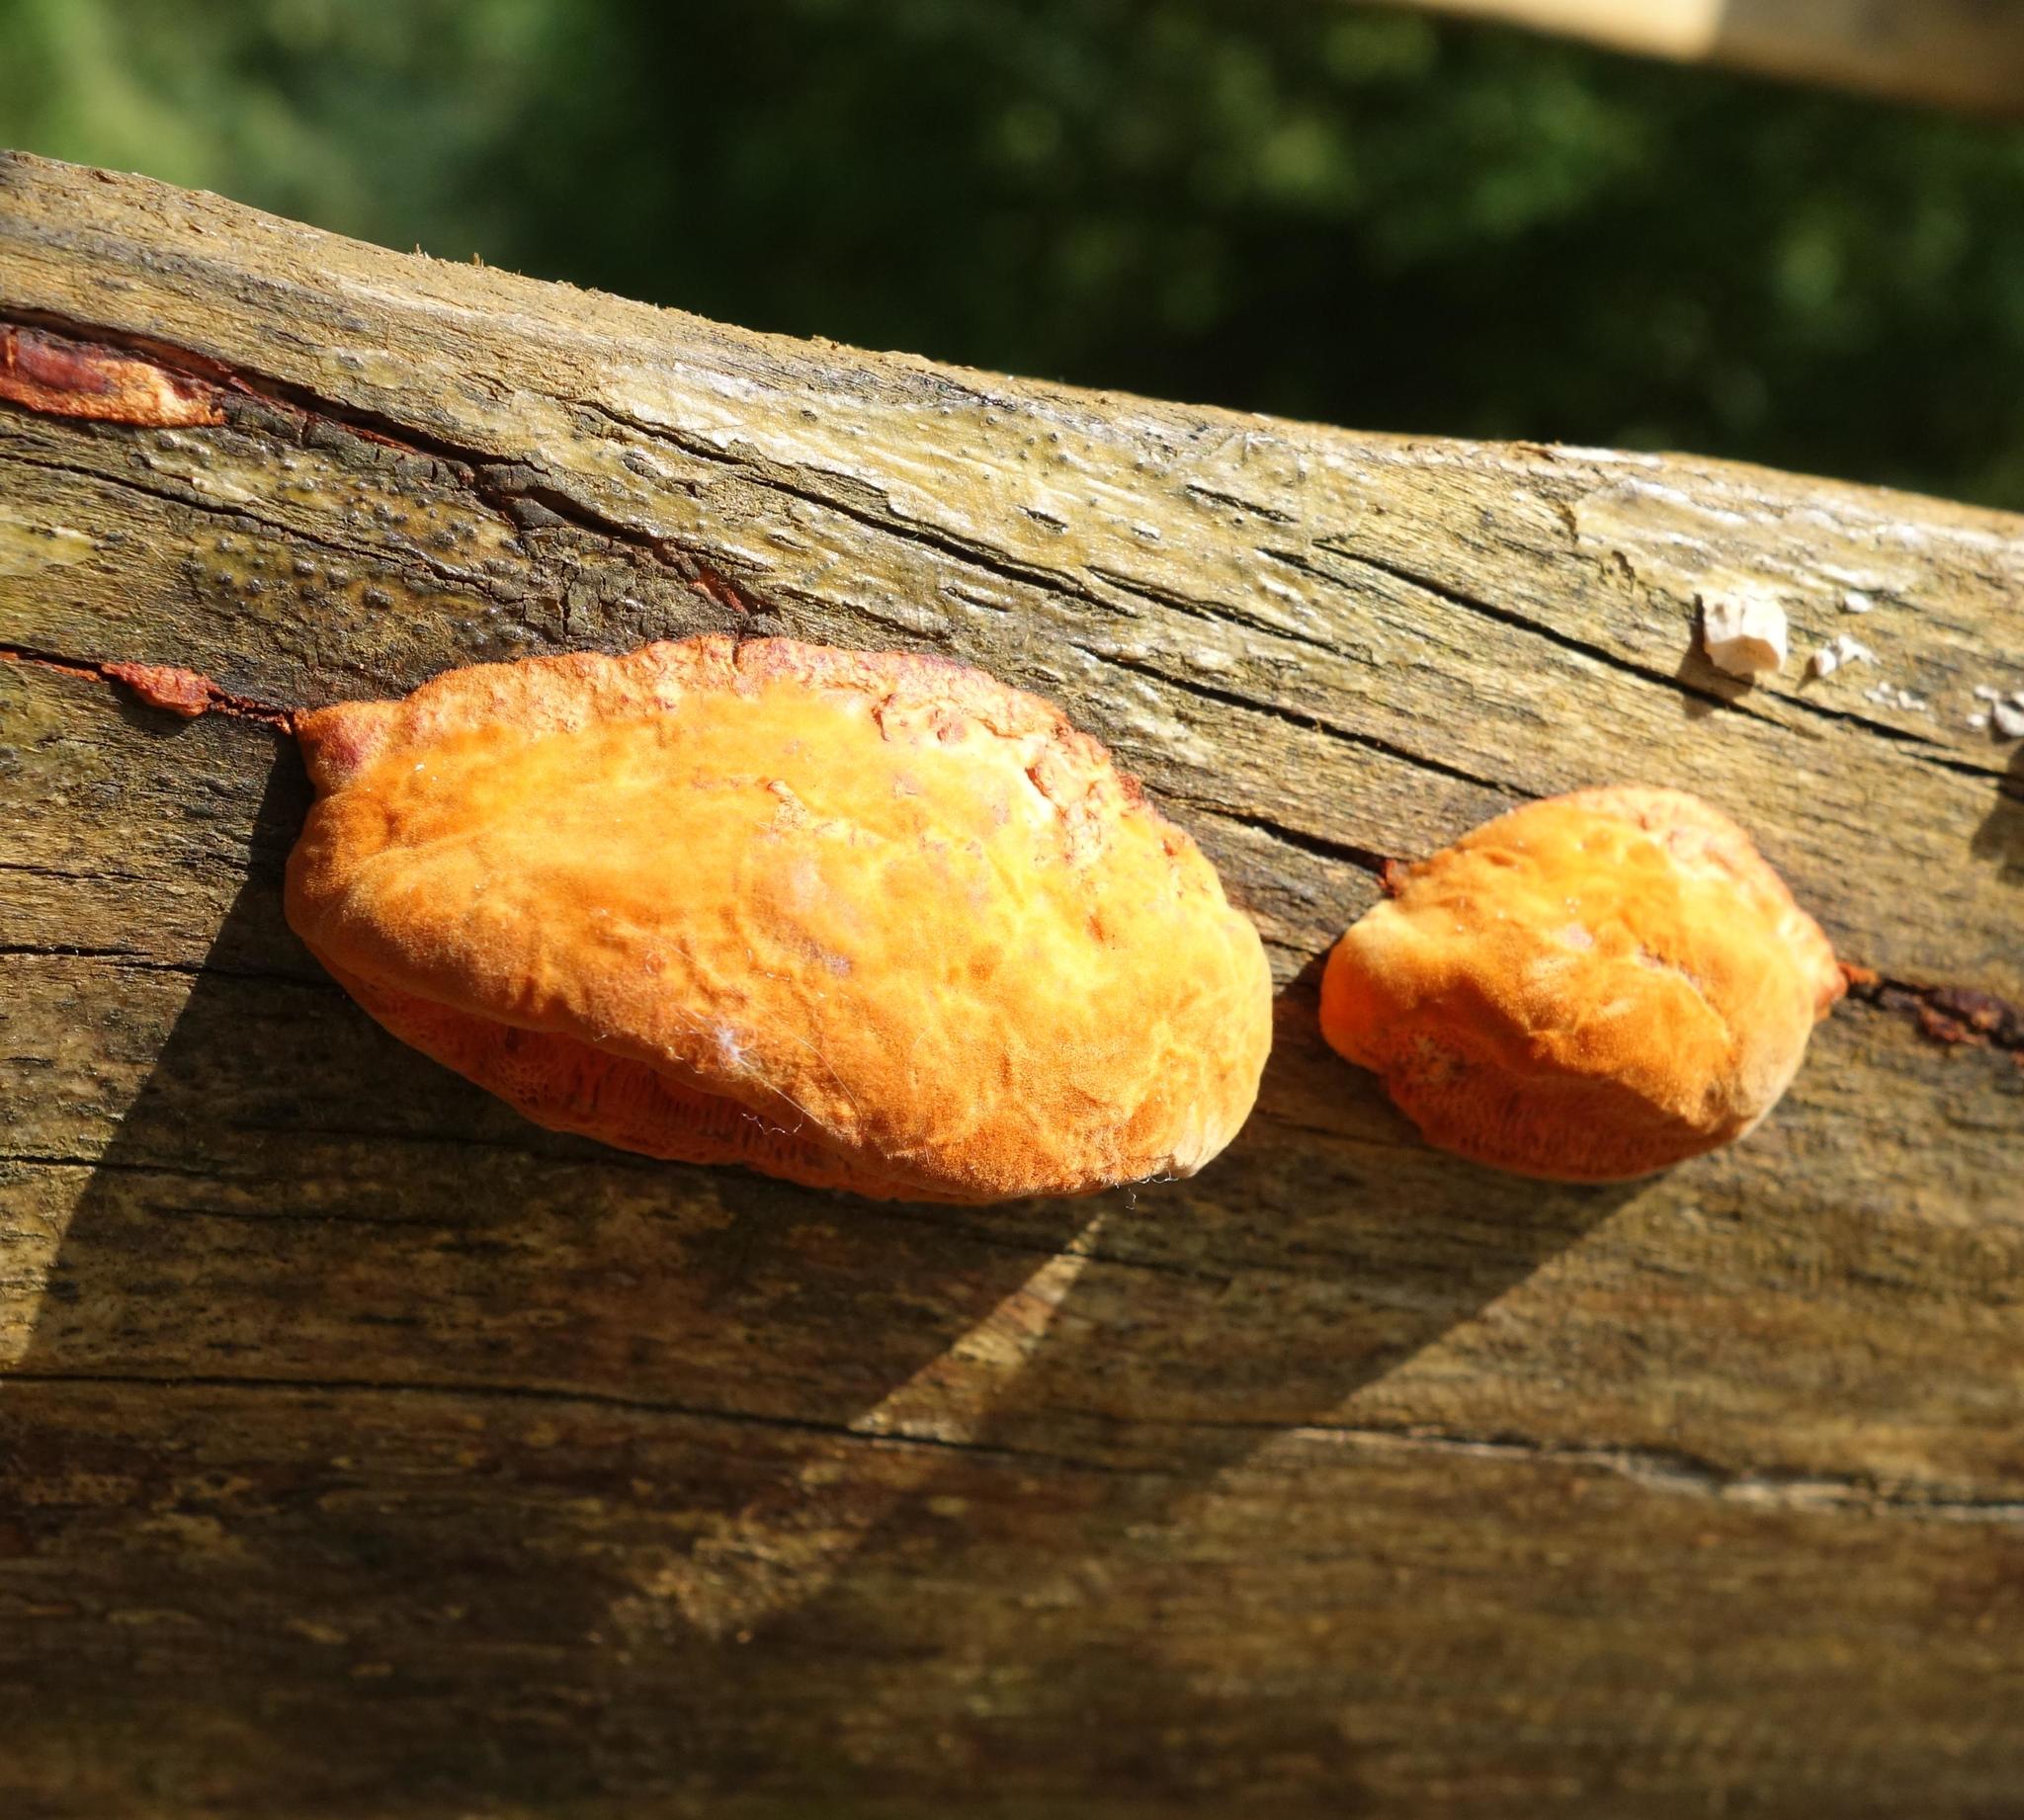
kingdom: Fungi
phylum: Basidiomycota
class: Agaricomycetes
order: Polyporales
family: Polyporaceae
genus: Trametes
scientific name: Trametes cinnabarina
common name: Northern cinnabar polypore
